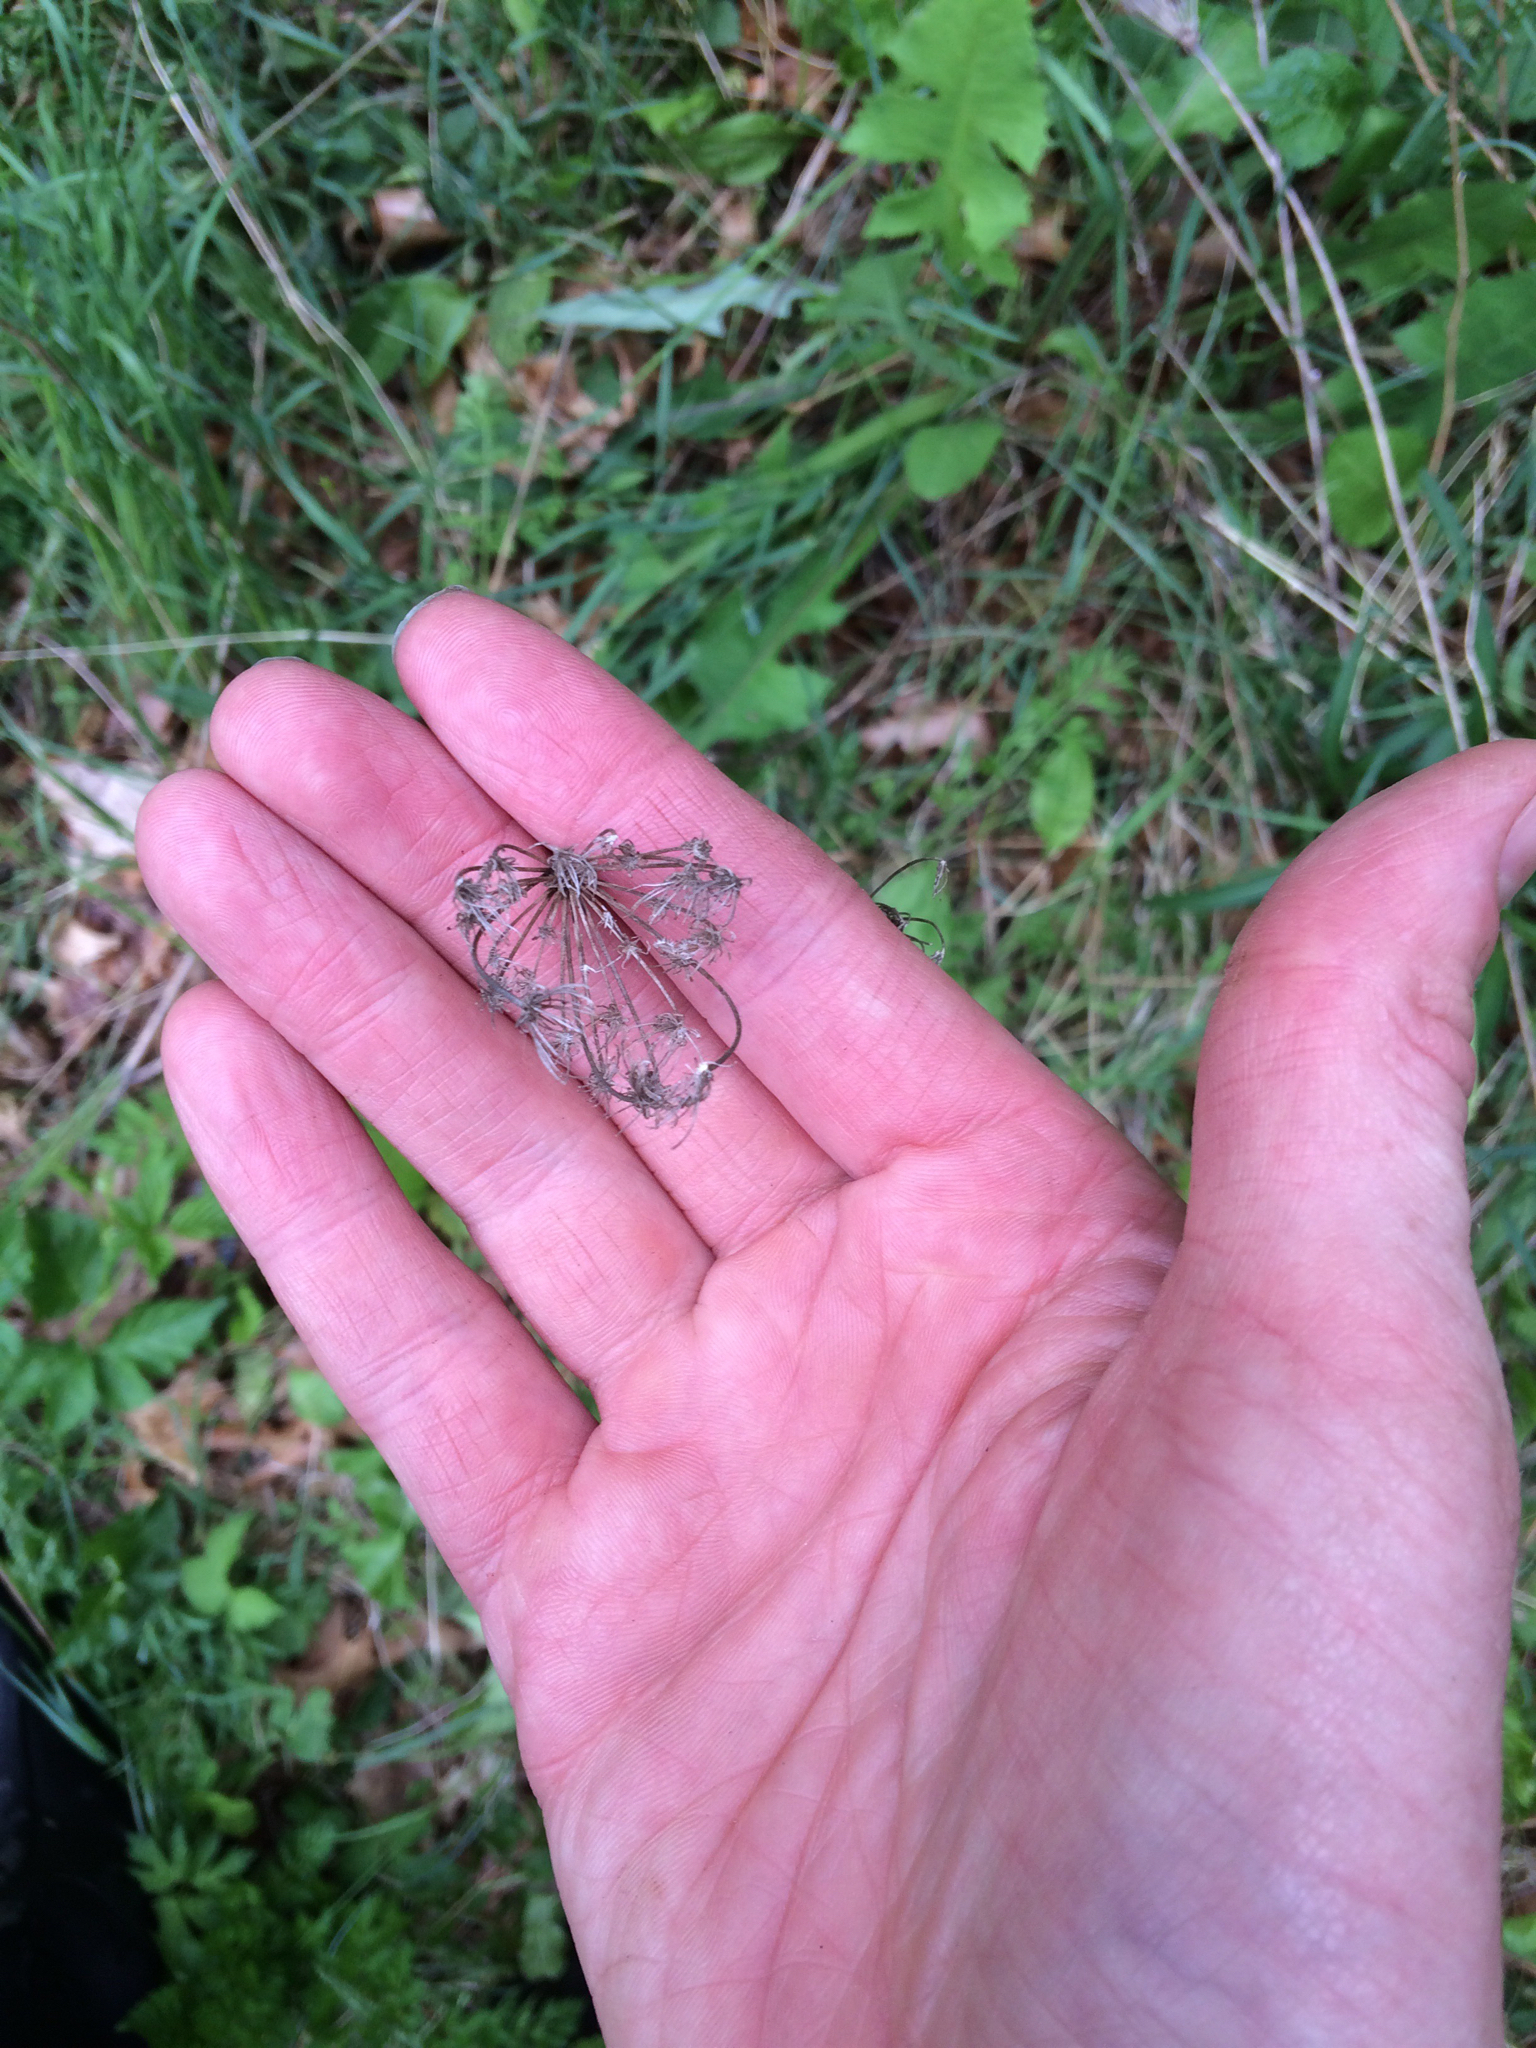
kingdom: Plantae
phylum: Tracheophyta
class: Magnoliopsida
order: Apiales
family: Apiaceae
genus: Daucus
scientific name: Daucus carota
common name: Wild carrot
